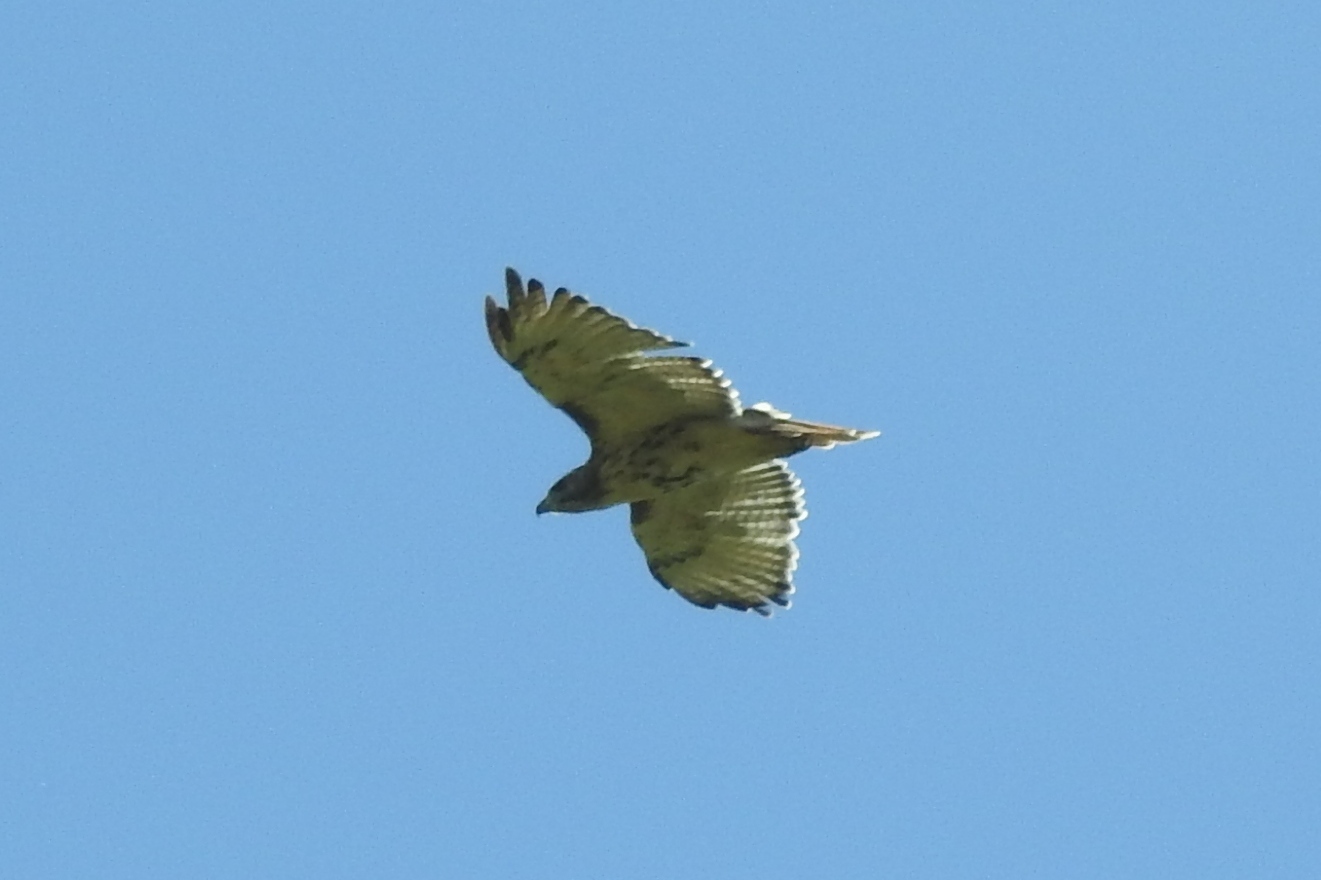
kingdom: Animalia
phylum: Chordata
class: Aves
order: Accipitriformes
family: Accipitridae
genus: Buteo
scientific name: Buteo jamaicensis
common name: Red-tailed hawk
